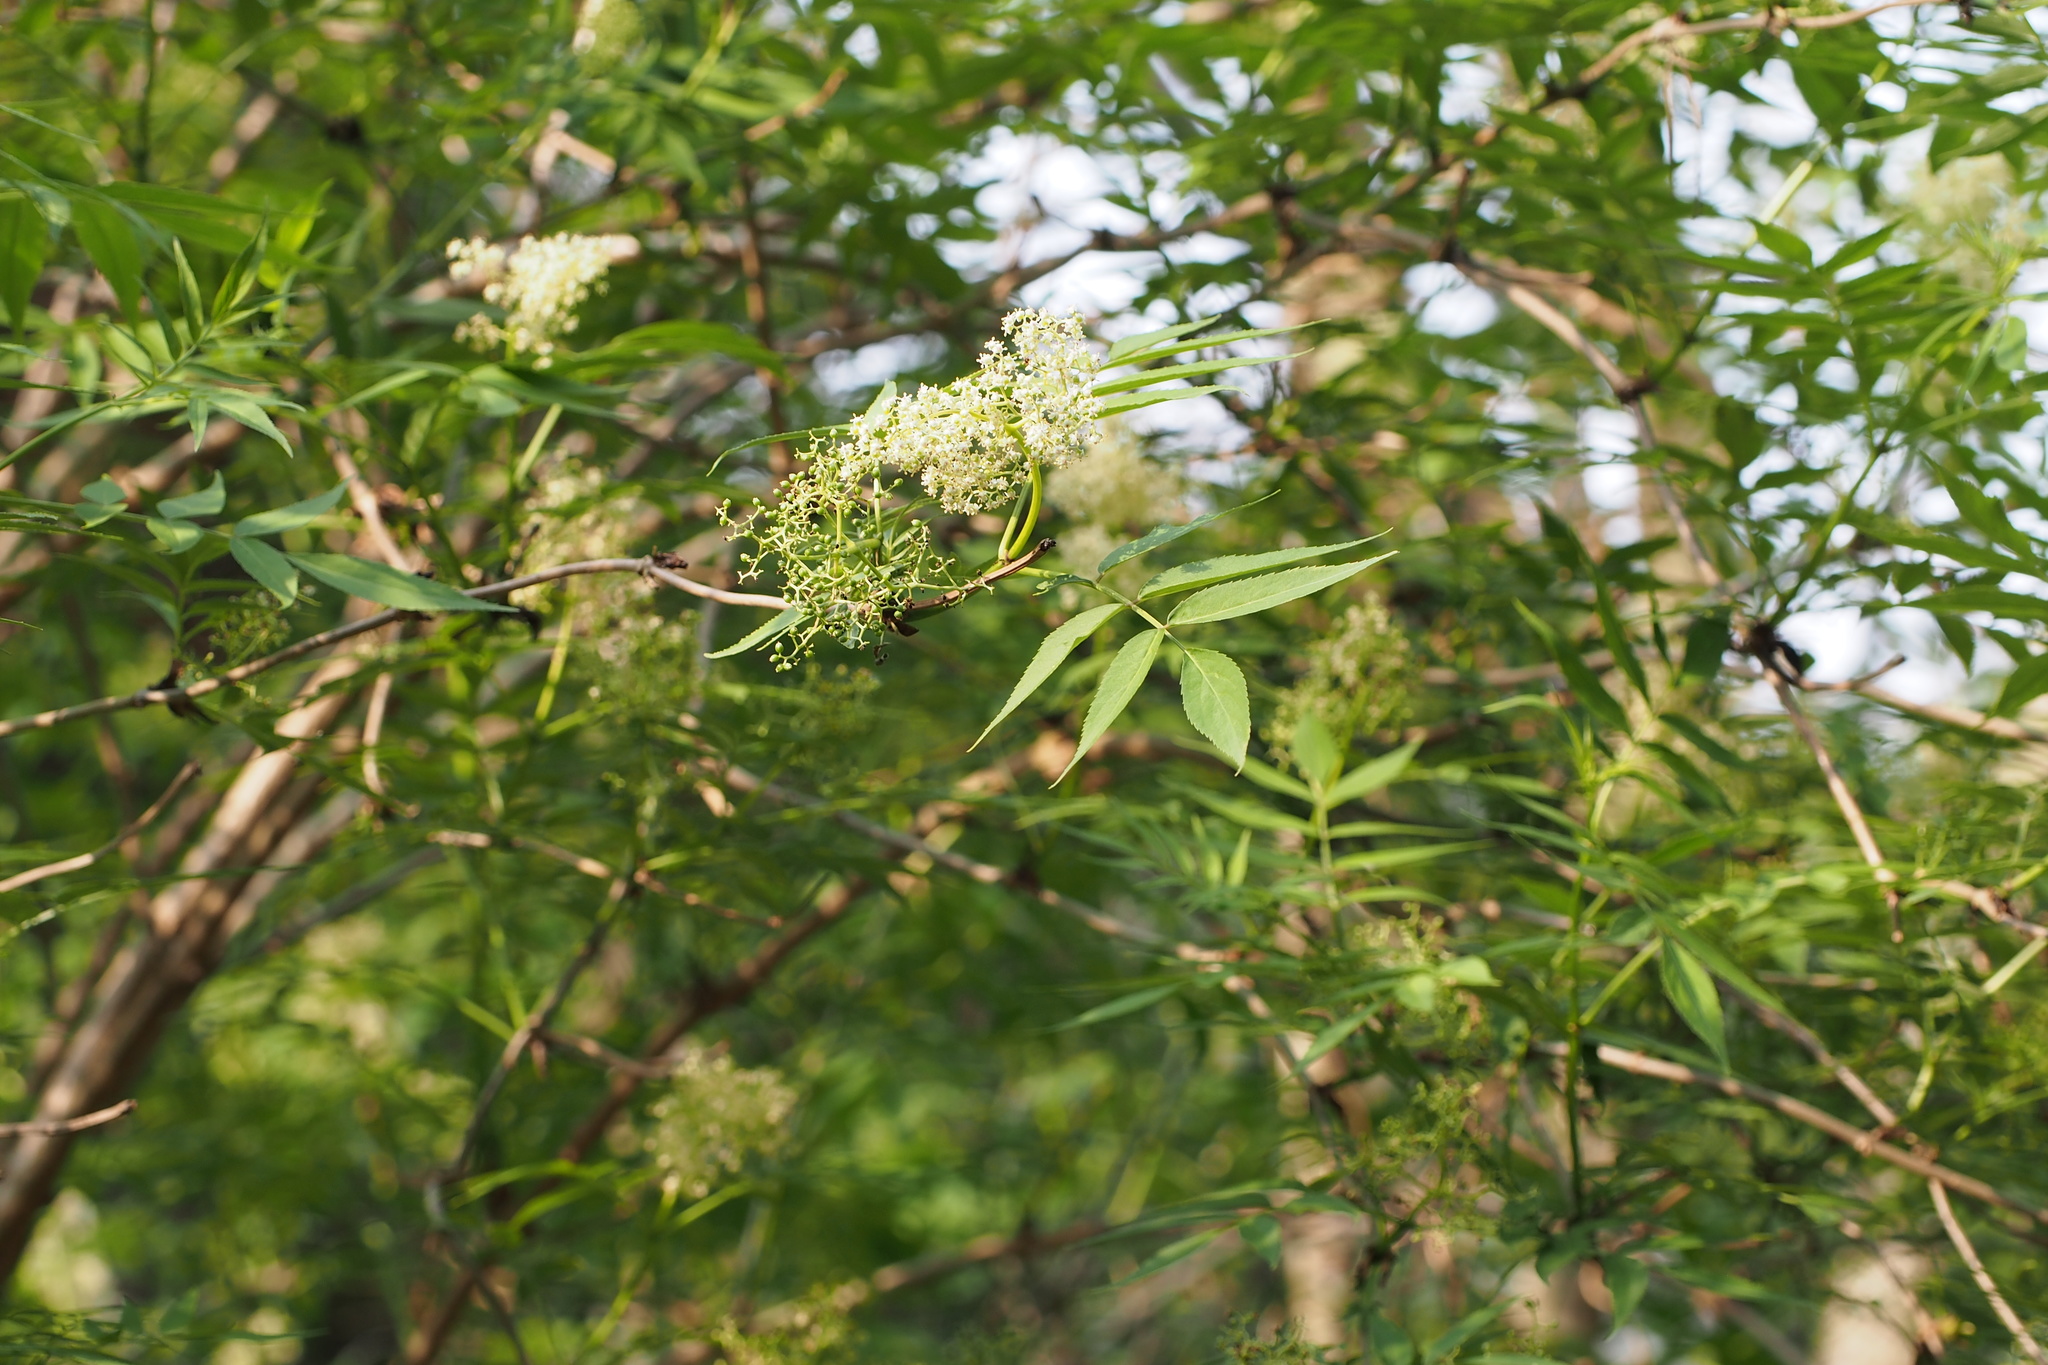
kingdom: Plantae
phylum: Tracheophyta
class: Magnoliopsida
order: Dipsacales
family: Viburnaceae
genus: Sambucus
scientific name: Sambucus sieboldiana
